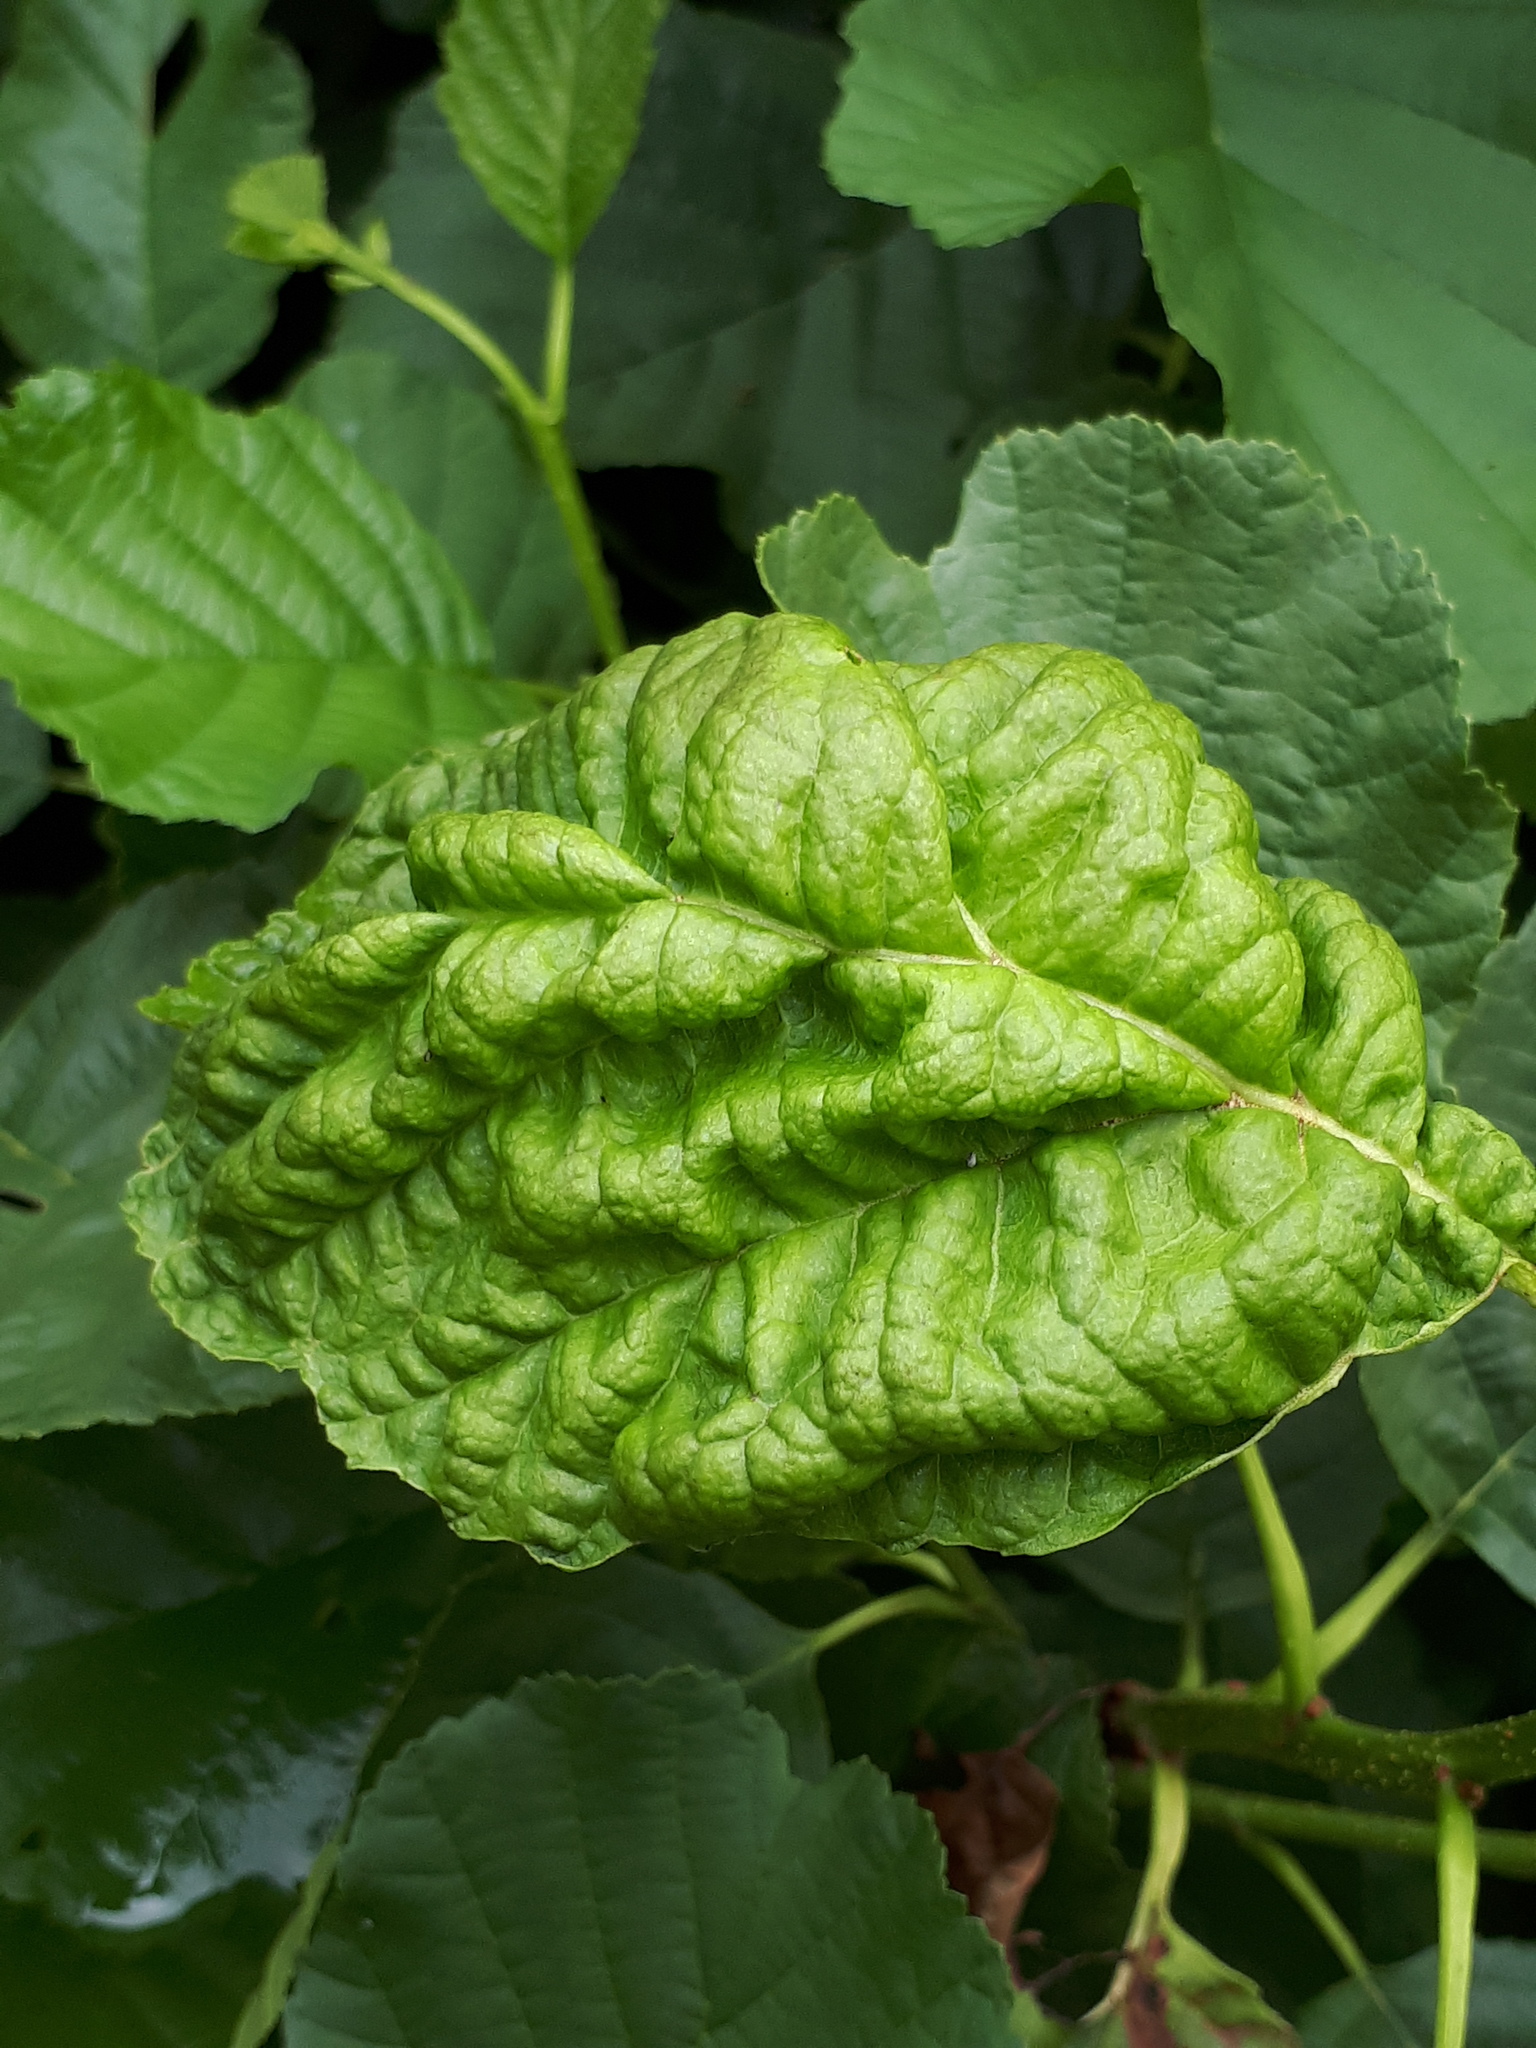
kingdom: Fungi
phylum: Ascomycota
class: Taphrinomycetes
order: Taphrinales
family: Taphrinaceae
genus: Taphrina
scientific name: Taphrina tosquinetii
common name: Alder wrinkle
